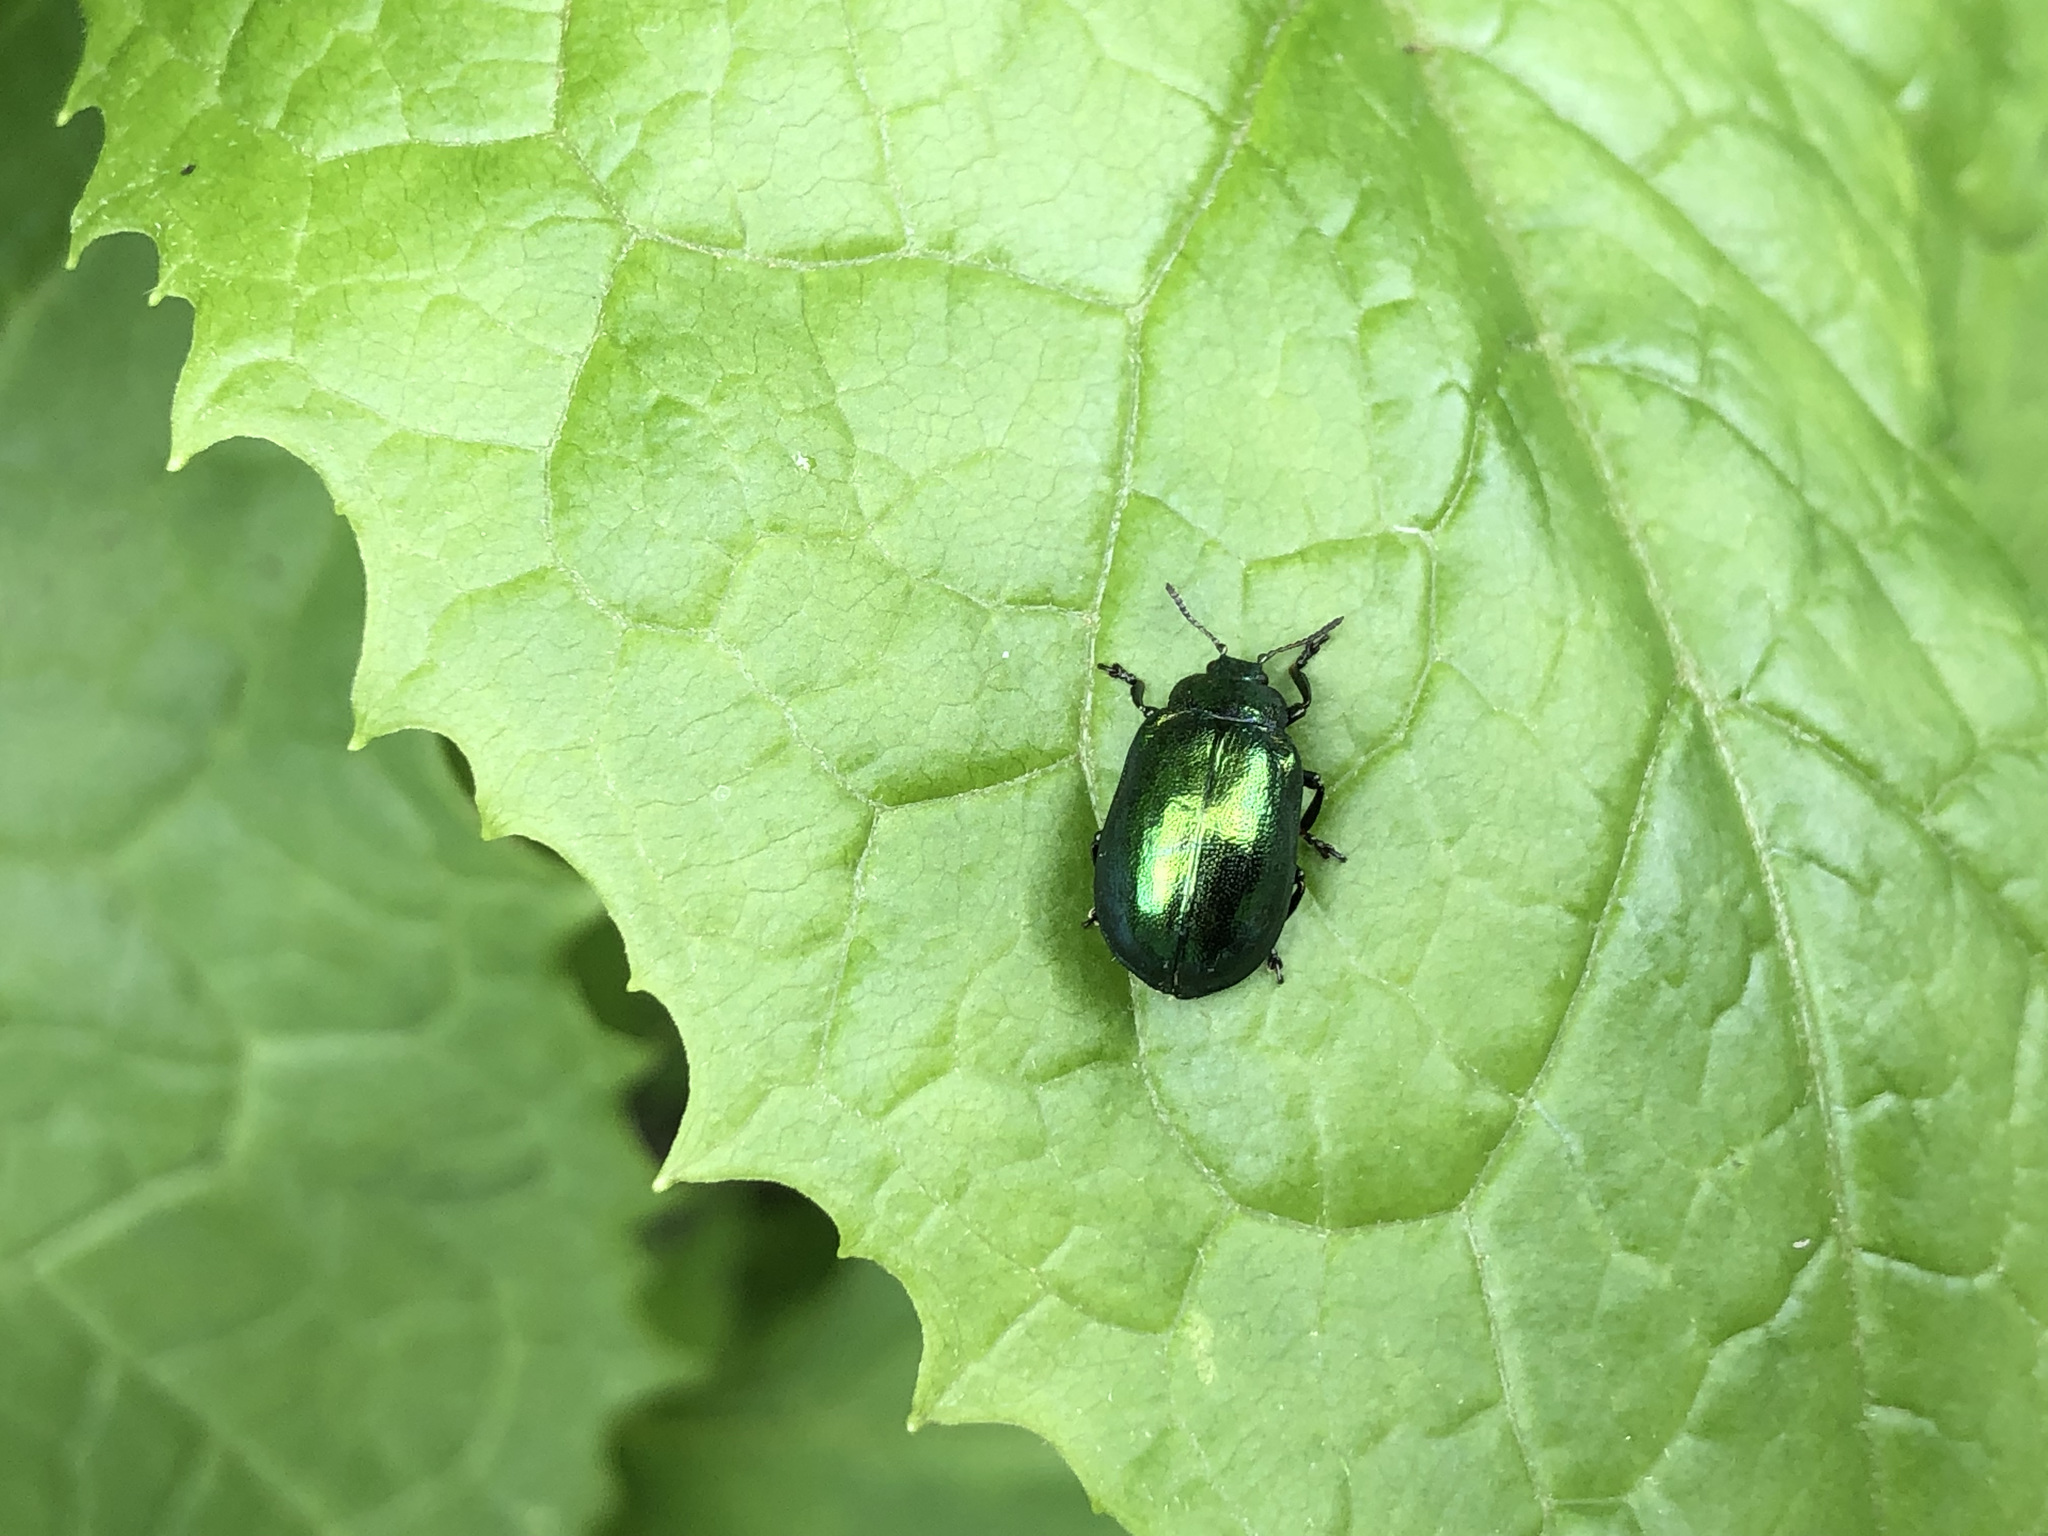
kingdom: Animalia
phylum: Arthropoda
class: Insecta
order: Coleoptera
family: Chrysomelidae
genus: Plagiosterna
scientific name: Plagiosterna aenea
